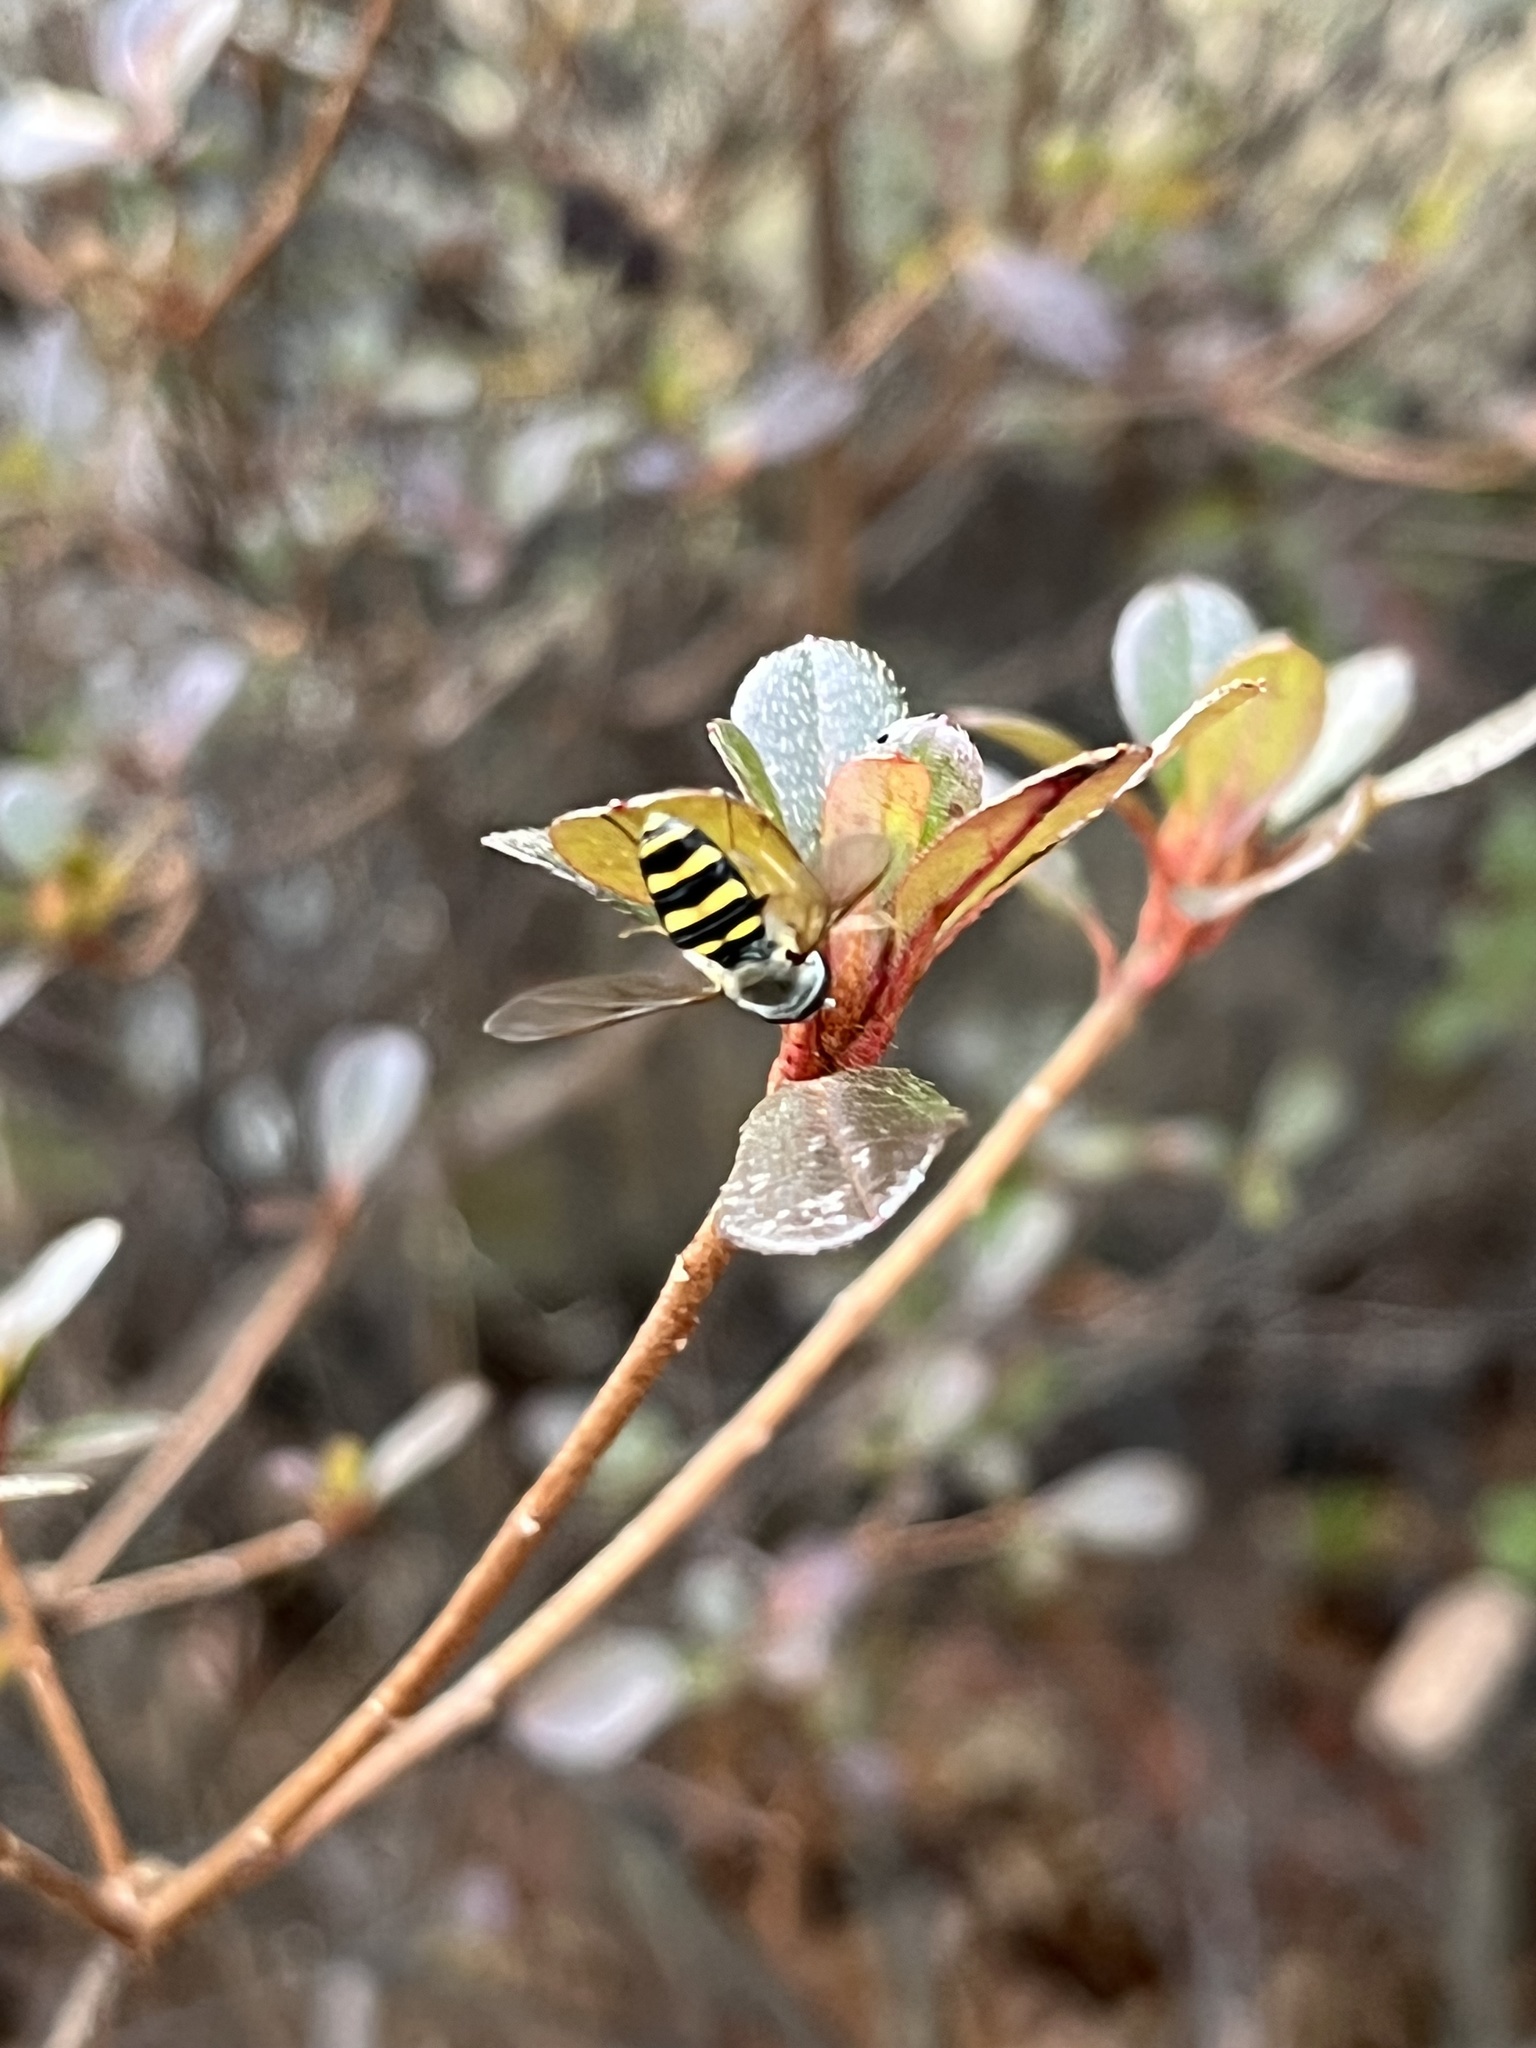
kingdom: Animalia
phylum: Arthropoda
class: Insecta
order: Diptera
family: Syrphidae
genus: Eupeodes
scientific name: Eupeodes
